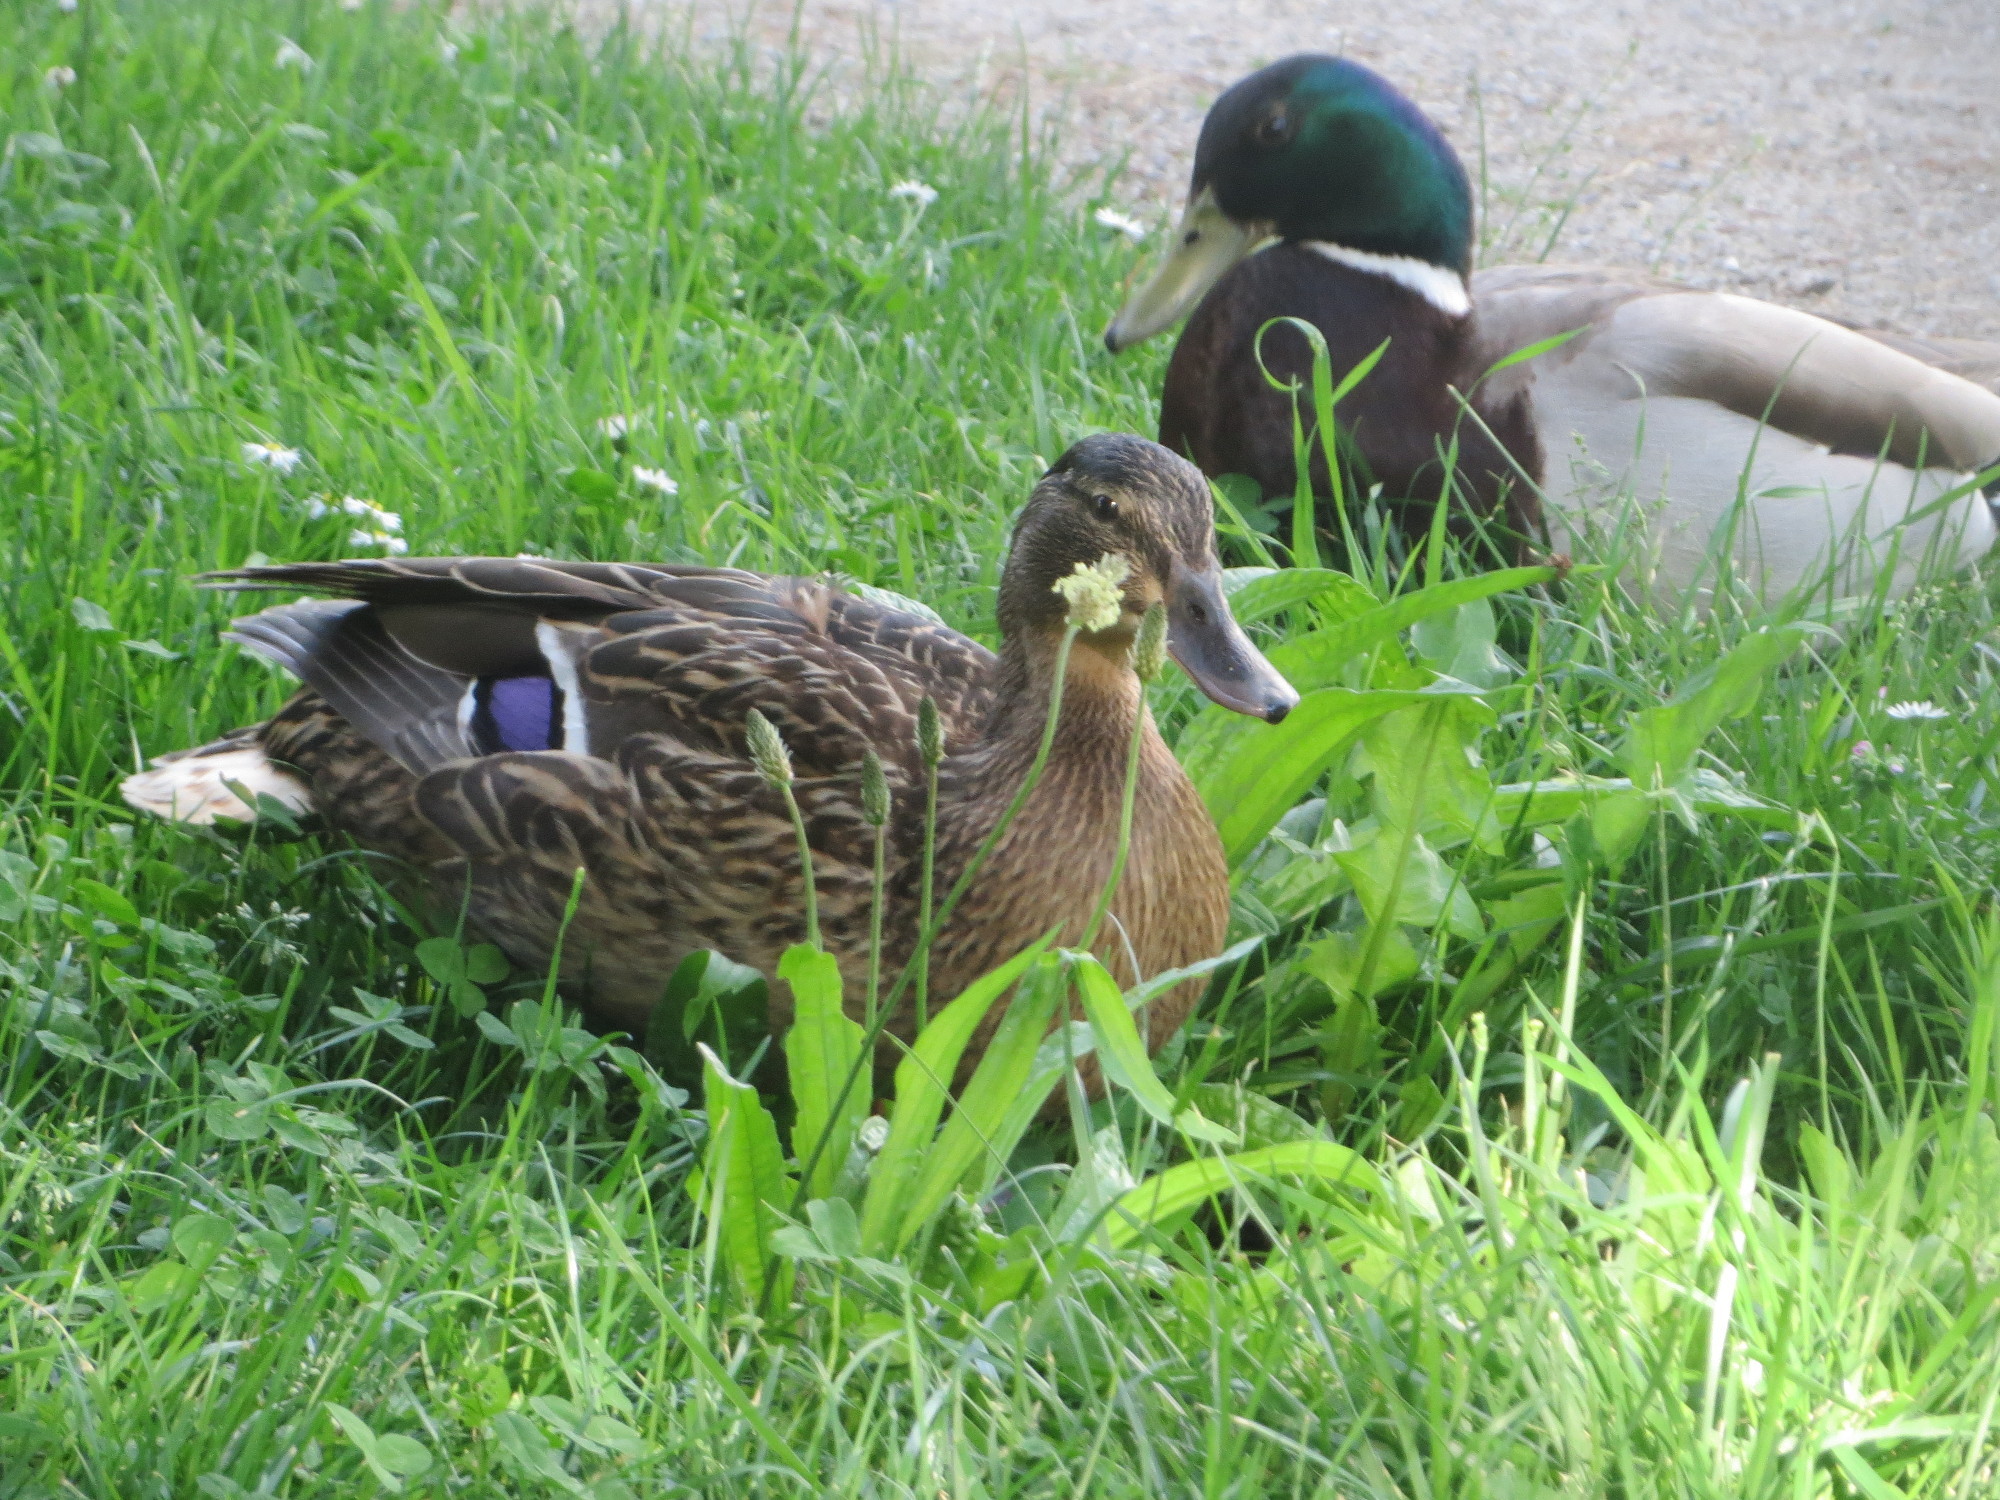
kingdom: Animalia
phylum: Chordata
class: Aves
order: Anseriformes
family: Anatidae
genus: Anas
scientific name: Anas platyrhynchos
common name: Mallard
